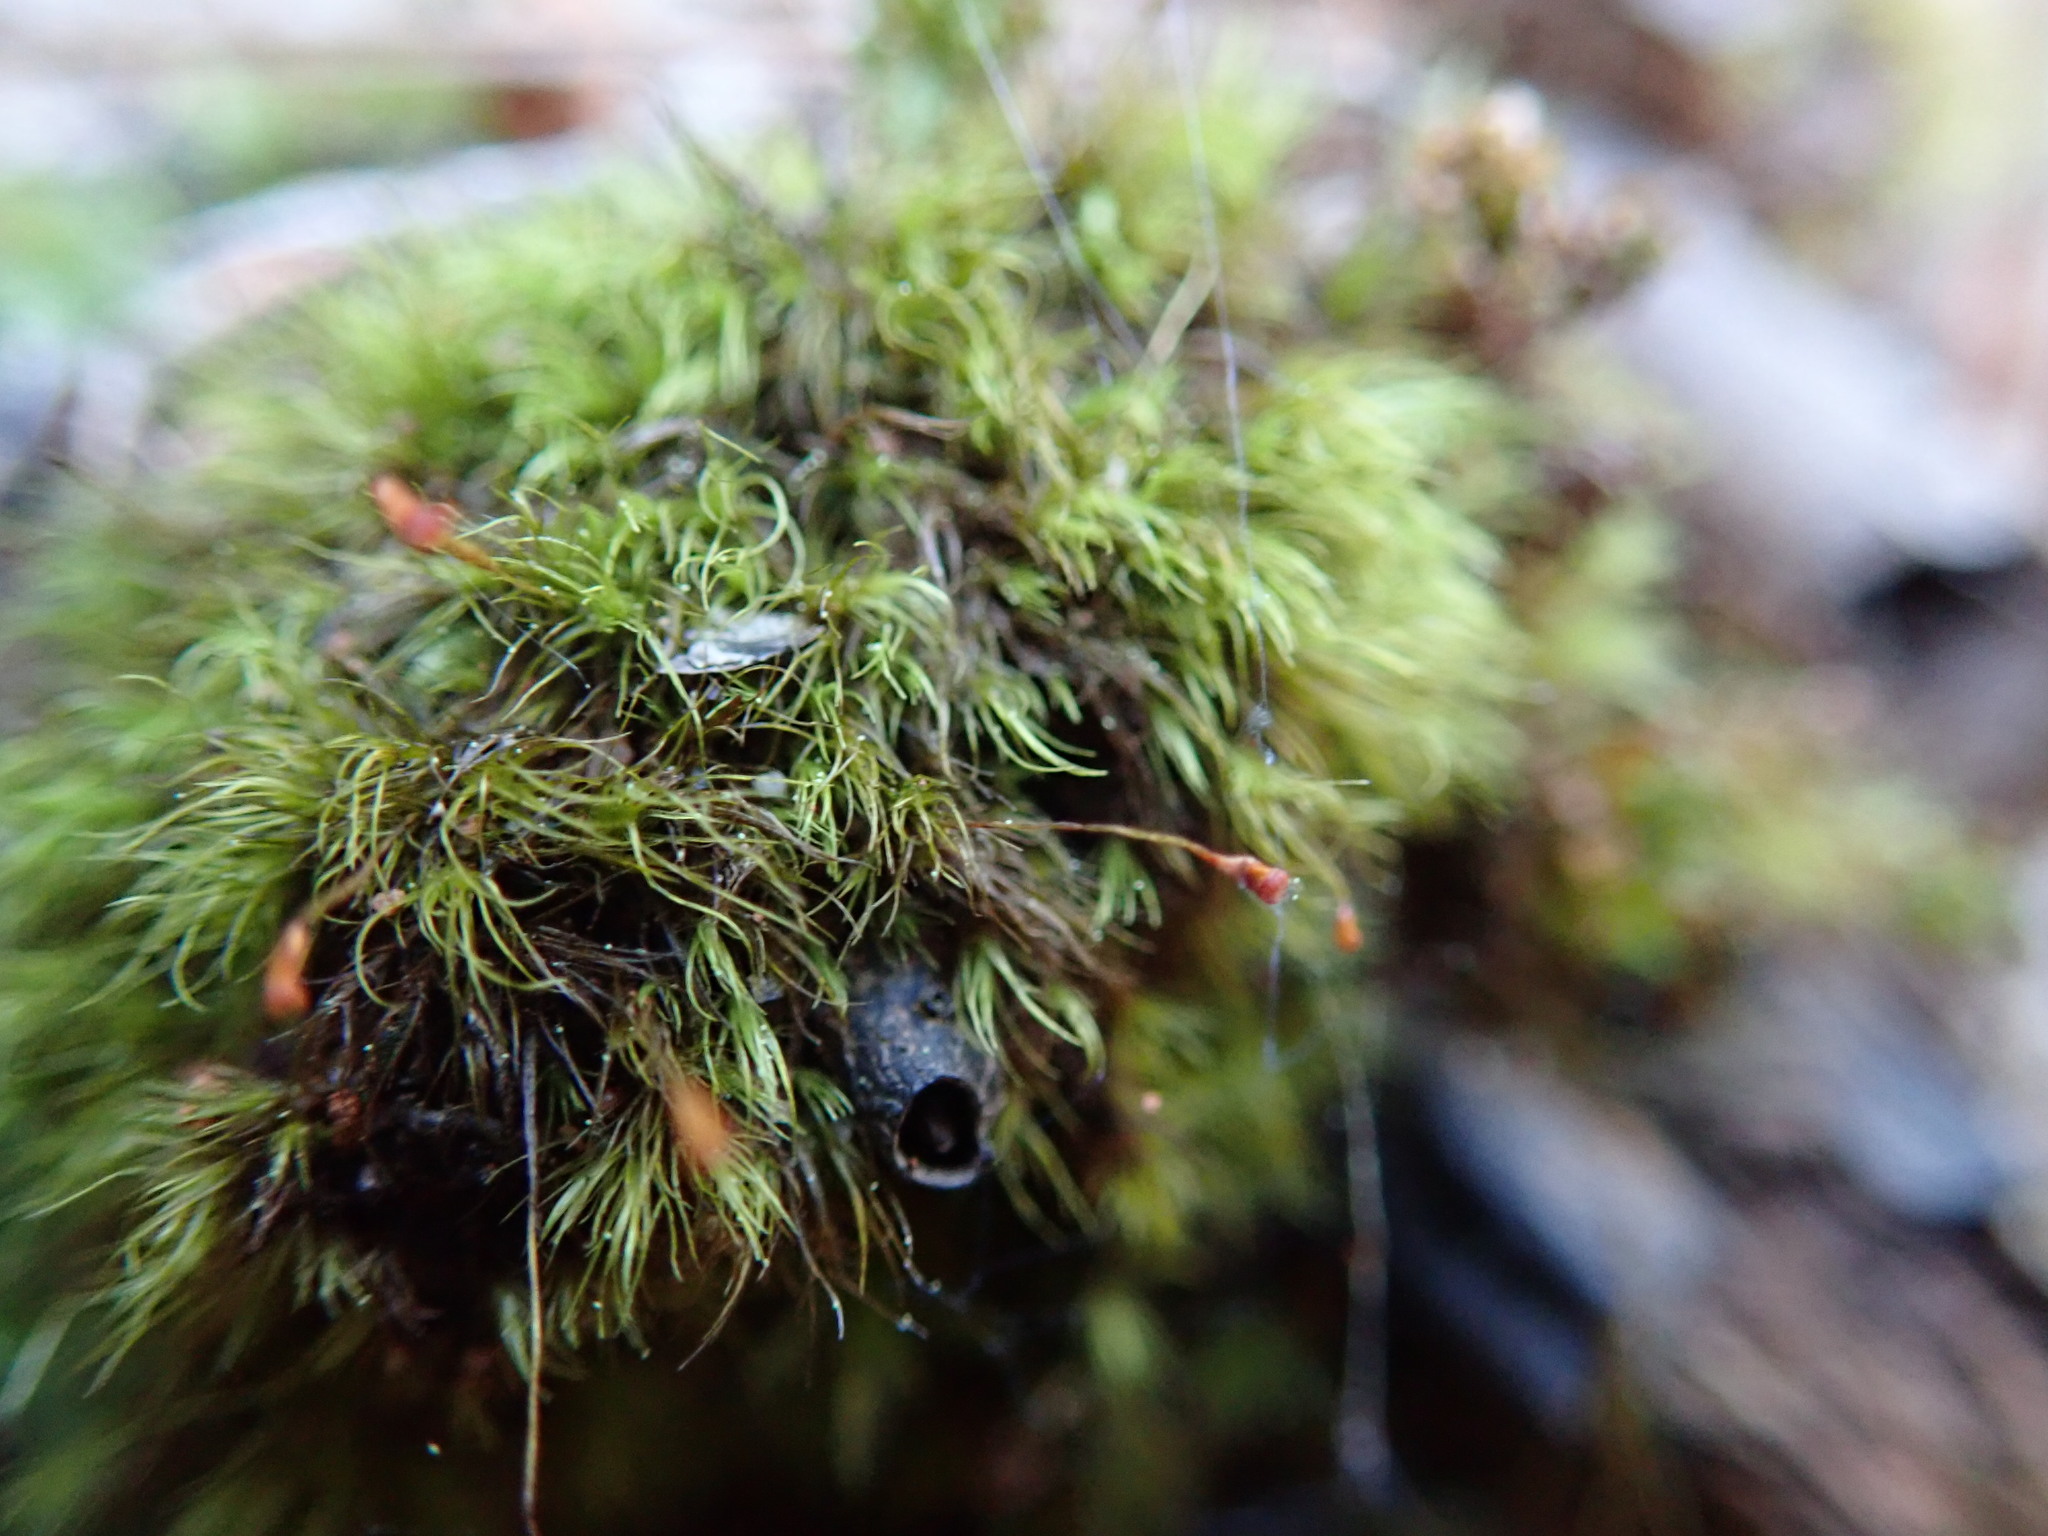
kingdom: Plantae
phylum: Bryophyta
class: Bryopsida
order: Dicranales
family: Dicranellaceae
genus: Dicranella
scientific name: Dicranella heteromalla
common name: Silky forklet moss
